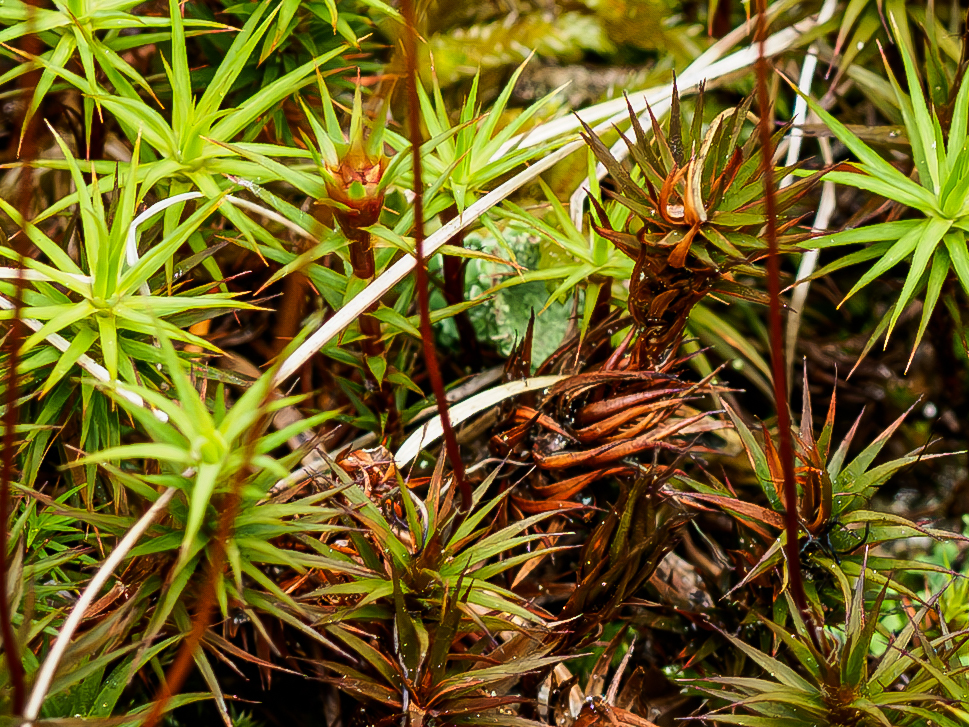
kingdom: Plantae
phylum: Bryophyta
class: Polytrichopsida
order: Polytrichales
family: Polytrichaceae
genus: Polytrichum
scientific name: Polytrichum perigoniale
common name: Dense haircap moss
